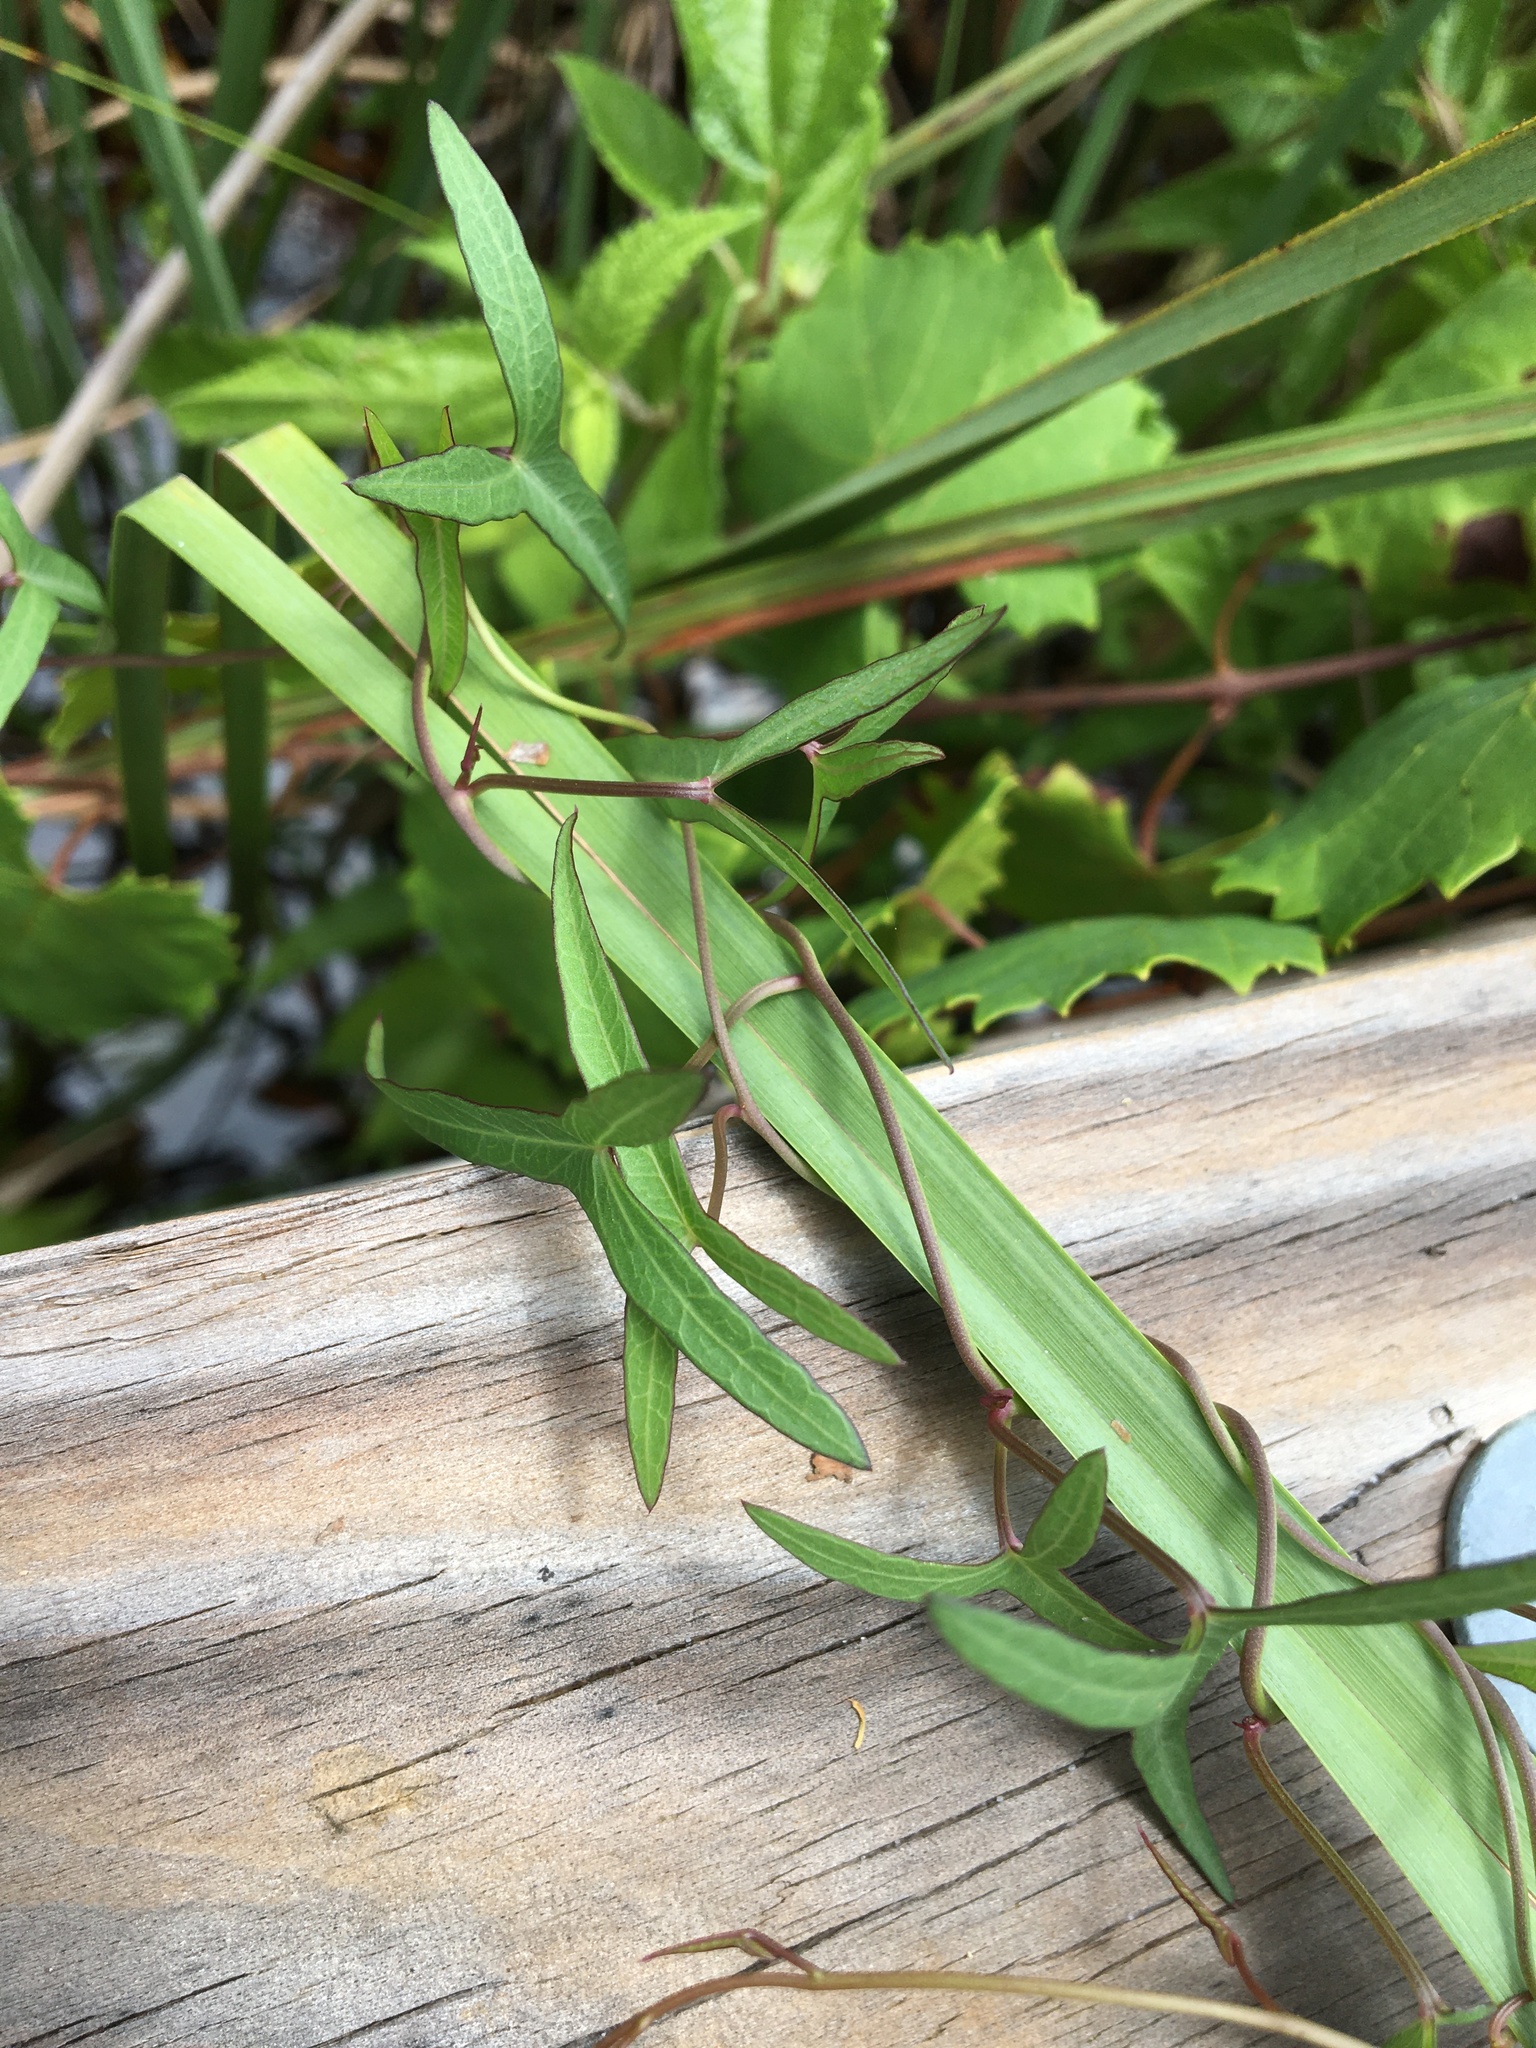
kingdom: Plantae
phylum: Tracheophyta
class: Magnoliopsida
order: Solanales
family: Convolvulaceae
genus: Ipomoea
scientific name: Ipomoea sagittata
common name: Saltmarsh morning glory
